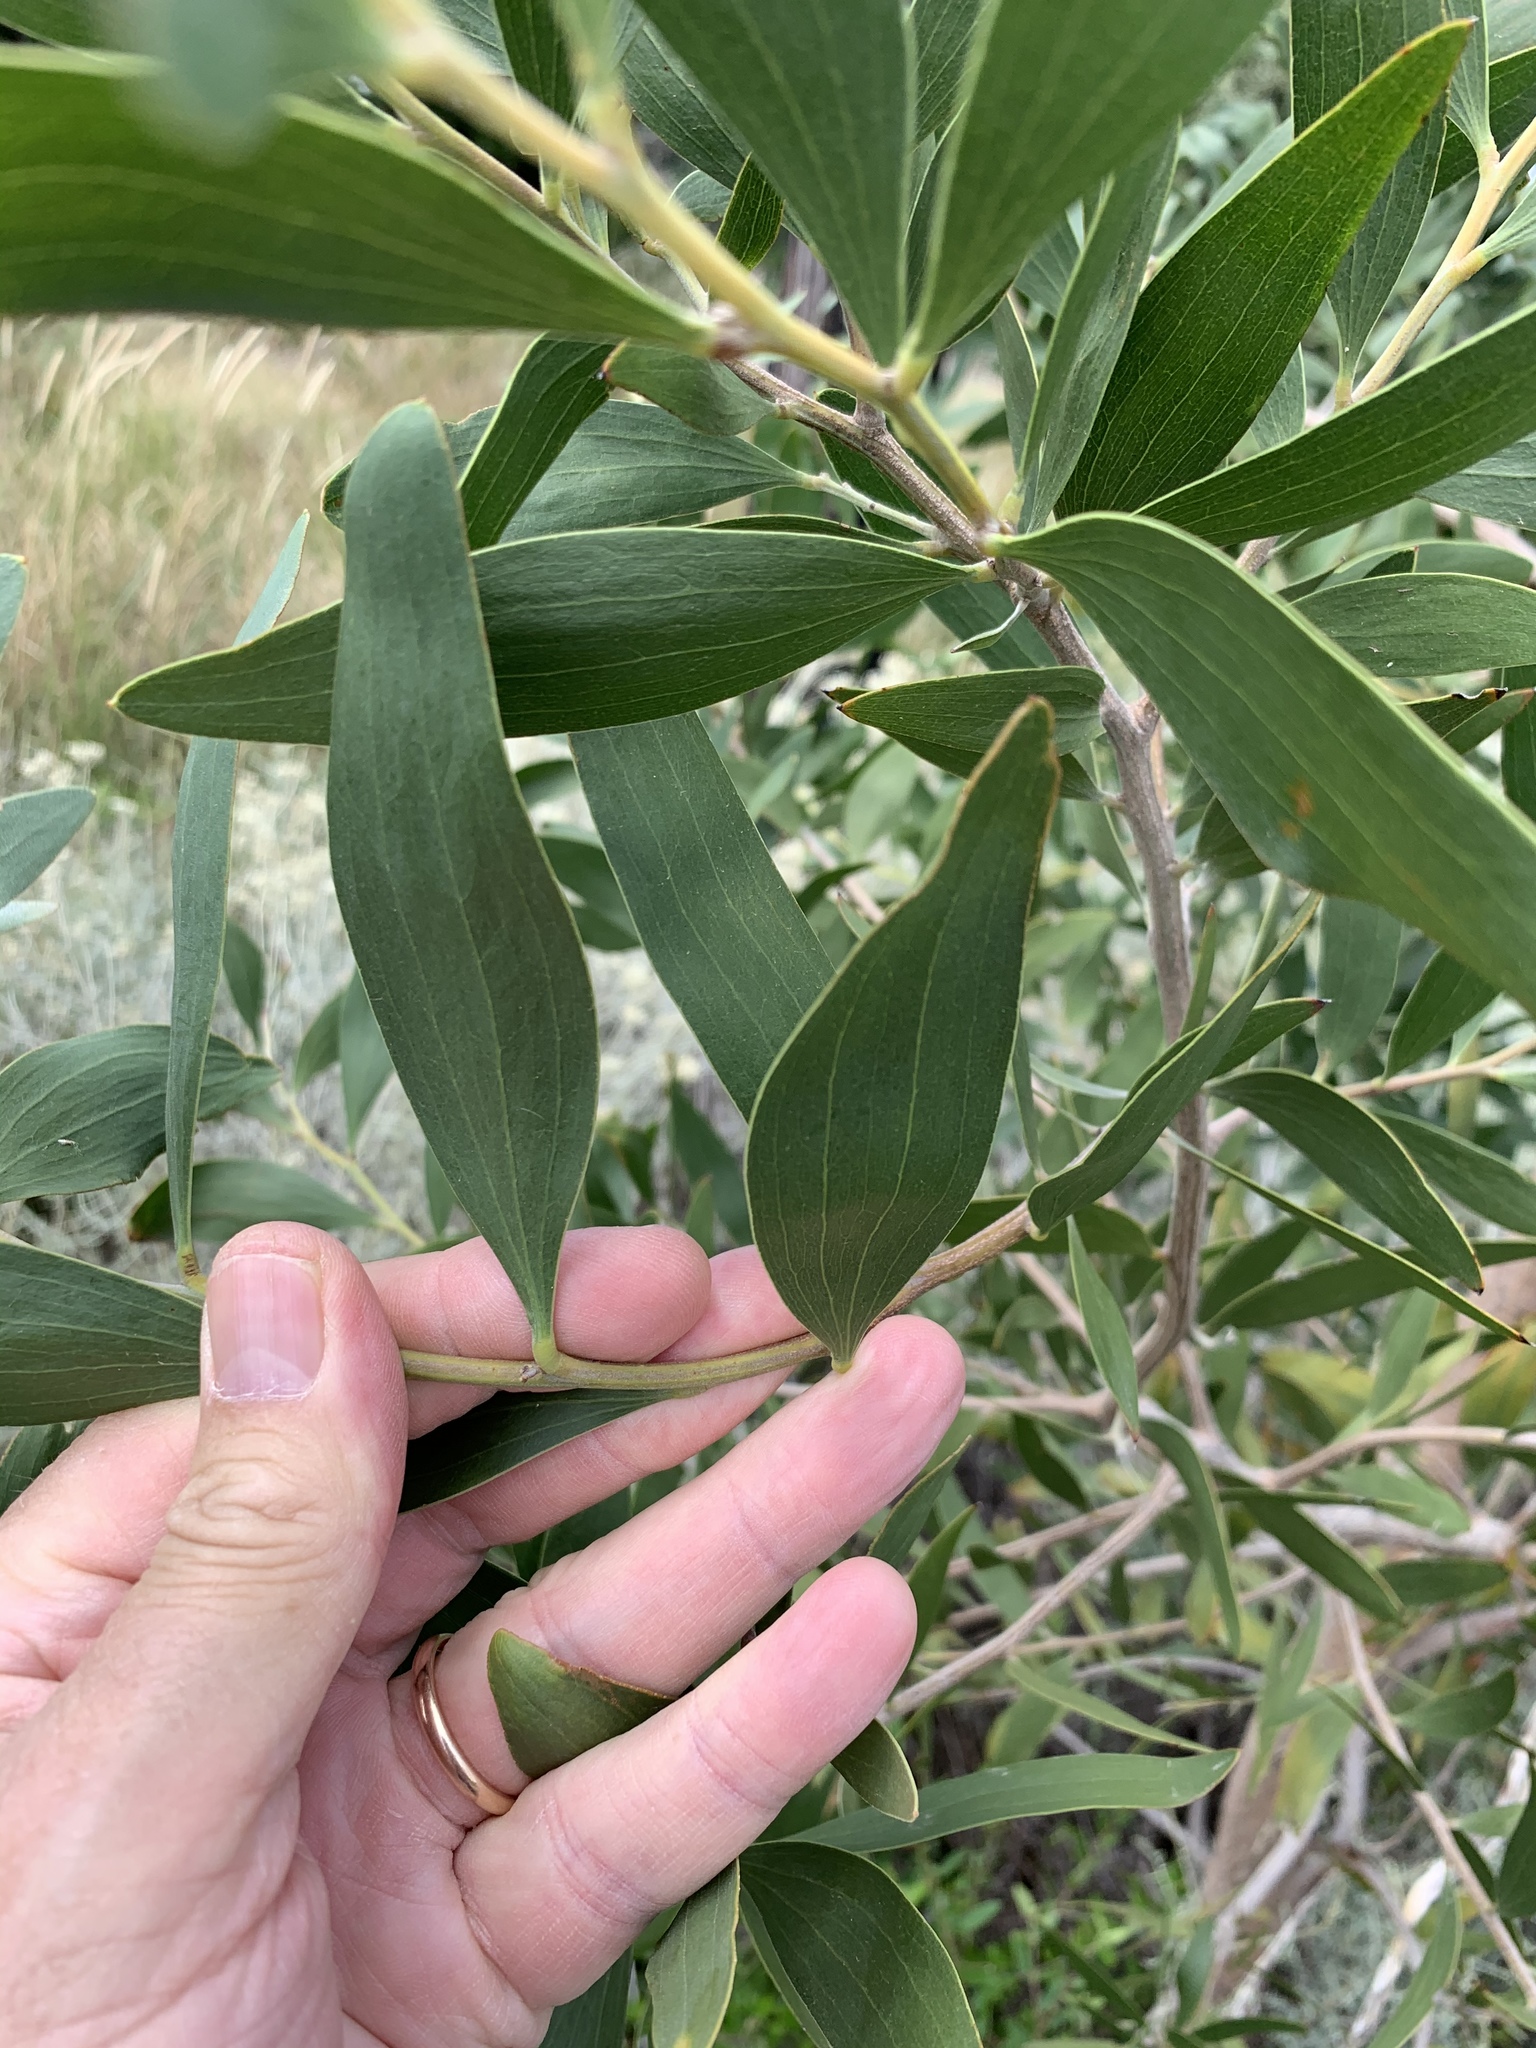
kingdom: Plantae
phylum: Tracheophyta
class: Magnoliopsida
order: Fabales
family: Fabaceae
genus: Acacia
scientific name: Acacia melanoxylon
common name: Blackwood
